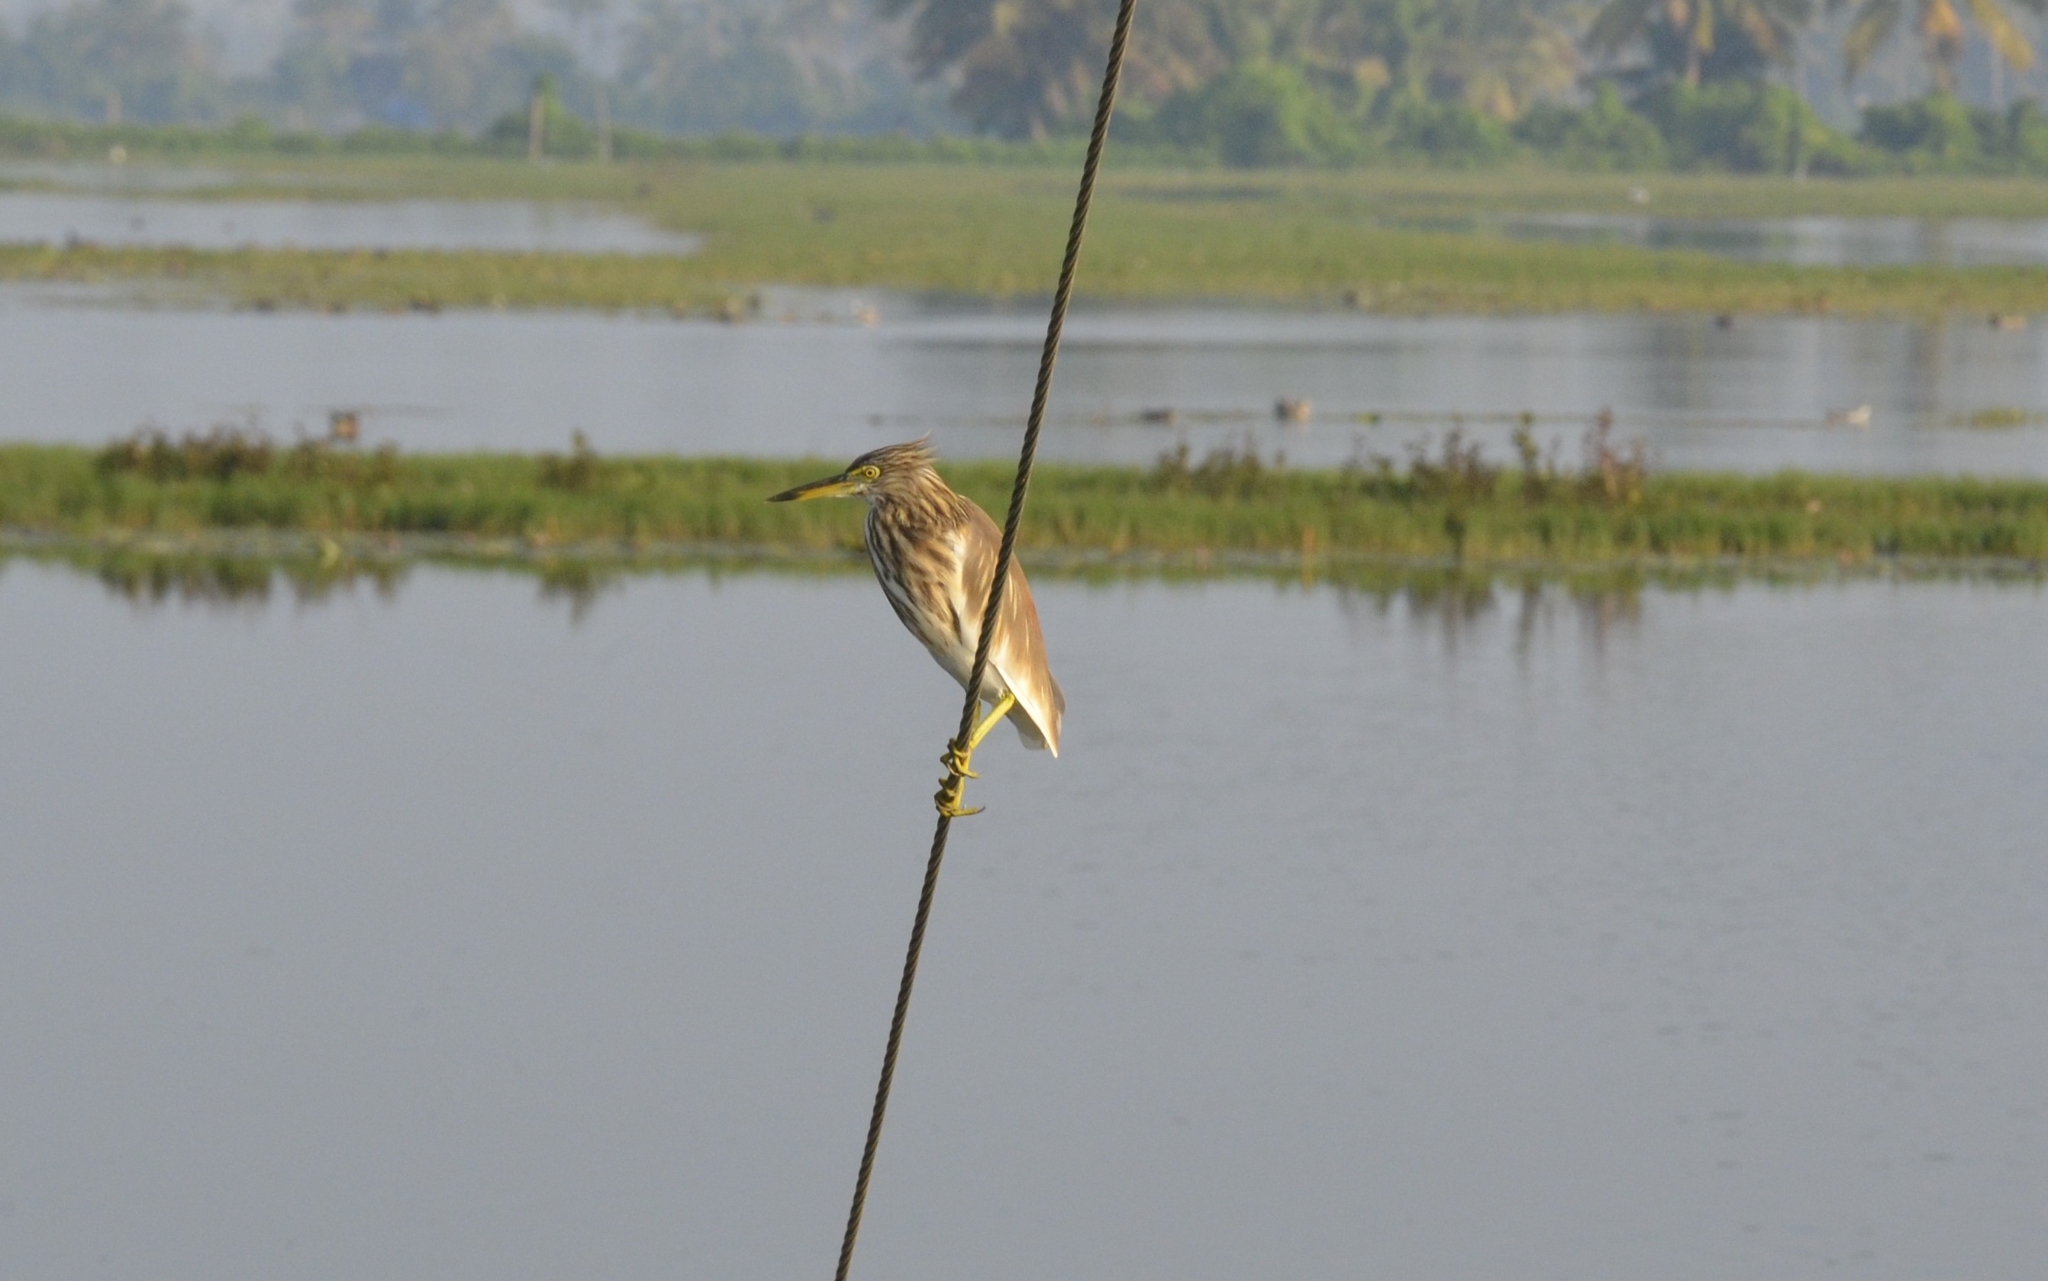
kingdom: Animalia
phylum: Chordata
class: Aves
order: Pelecaniformes
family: Ardeidae
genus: Ardeola
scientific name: Ardeola grayii
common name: Indian pond heron
